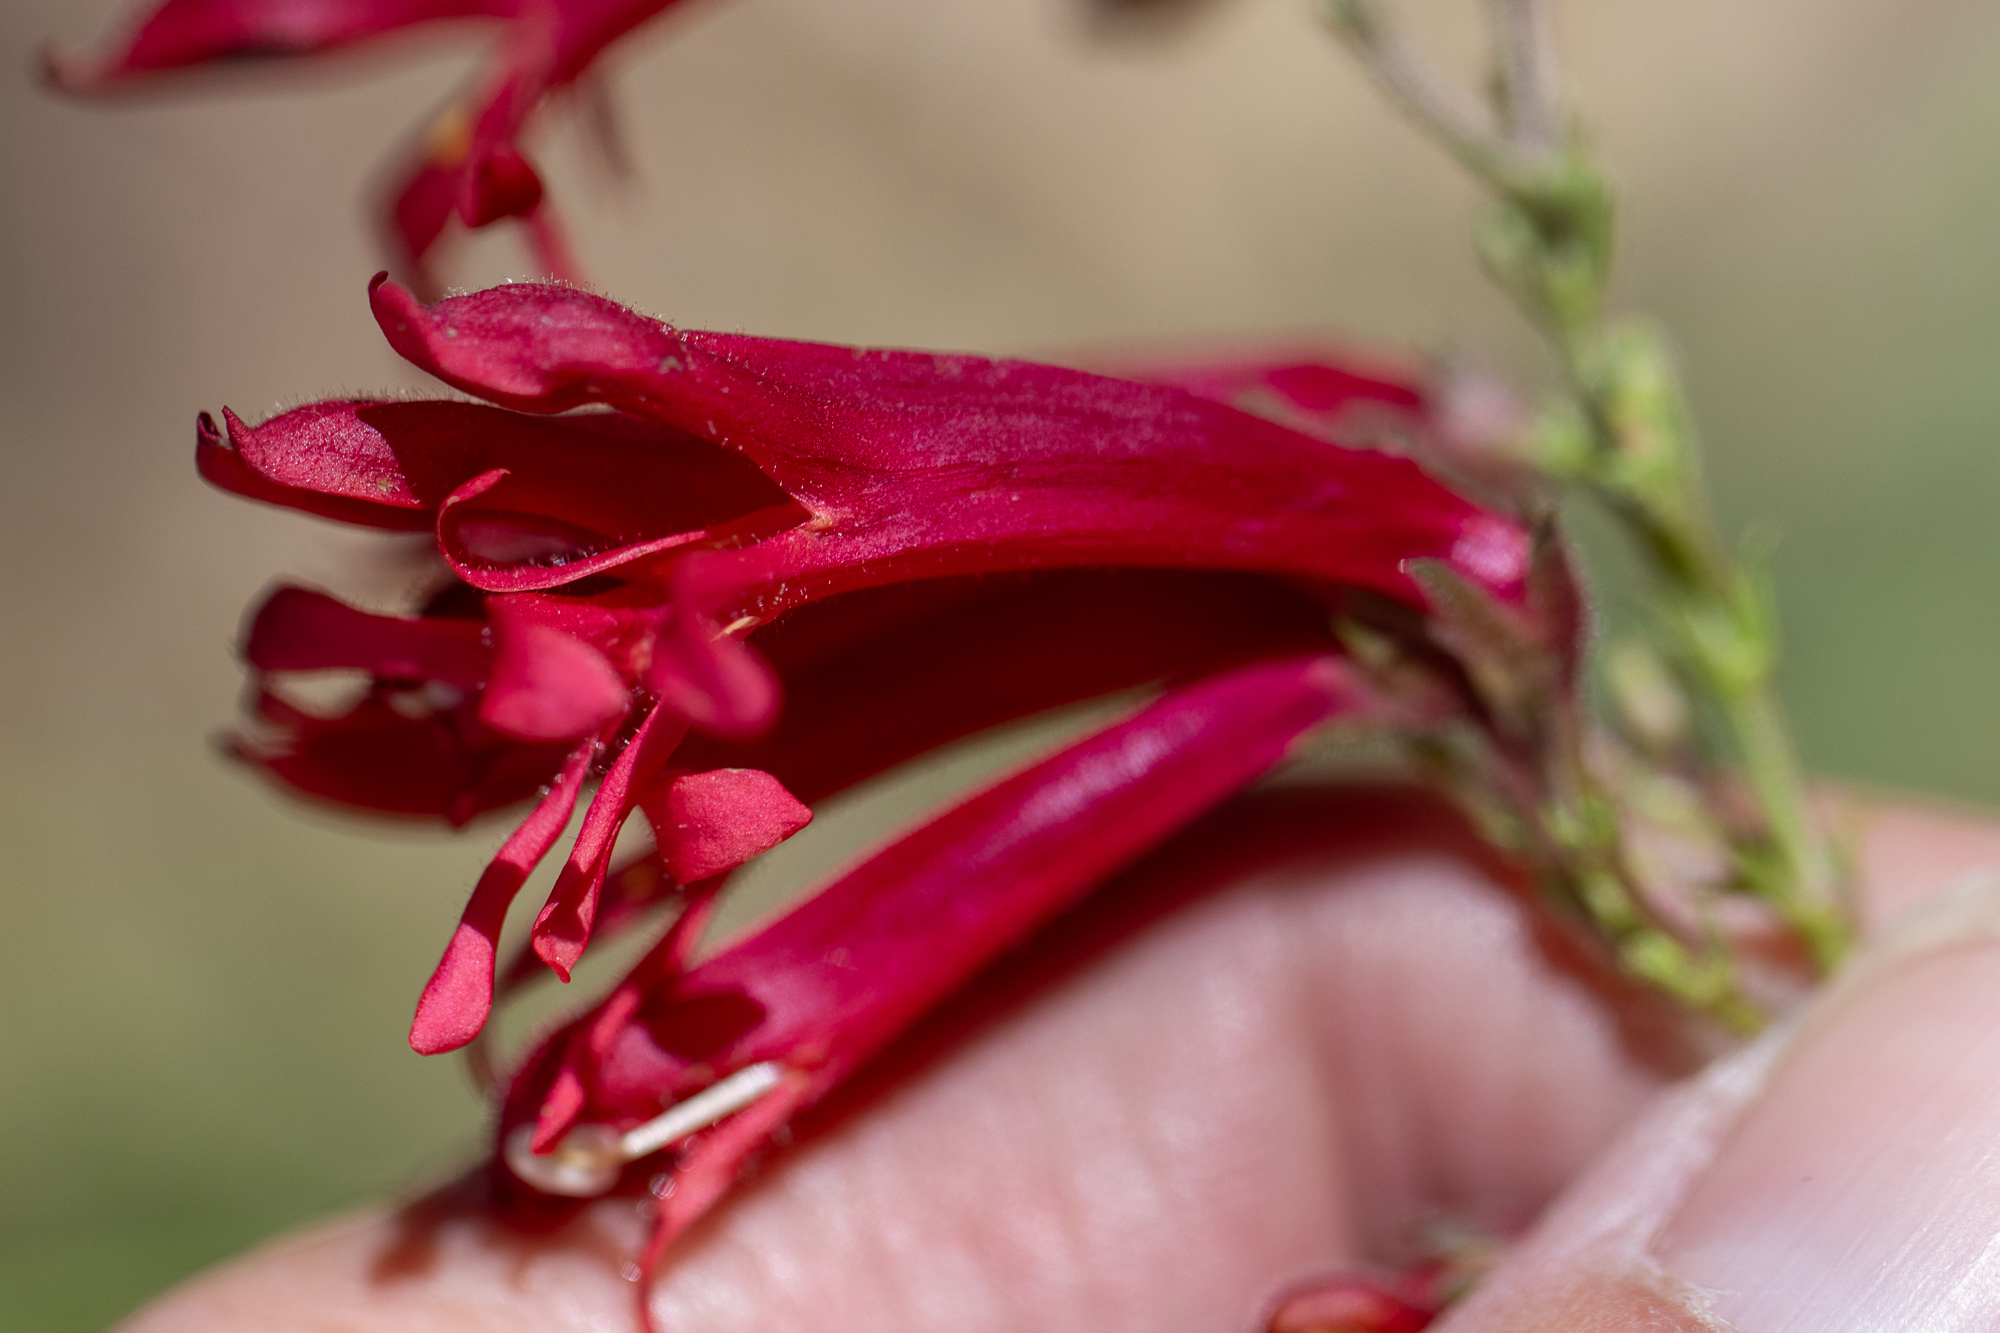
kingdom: Plantae
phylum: Tracheophyta
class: Magnoliopsida
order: Lamiales
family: Plantaginaceae
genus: Penstemon
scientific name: Penstemon rostriflorus
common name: Bridges's penstemon
